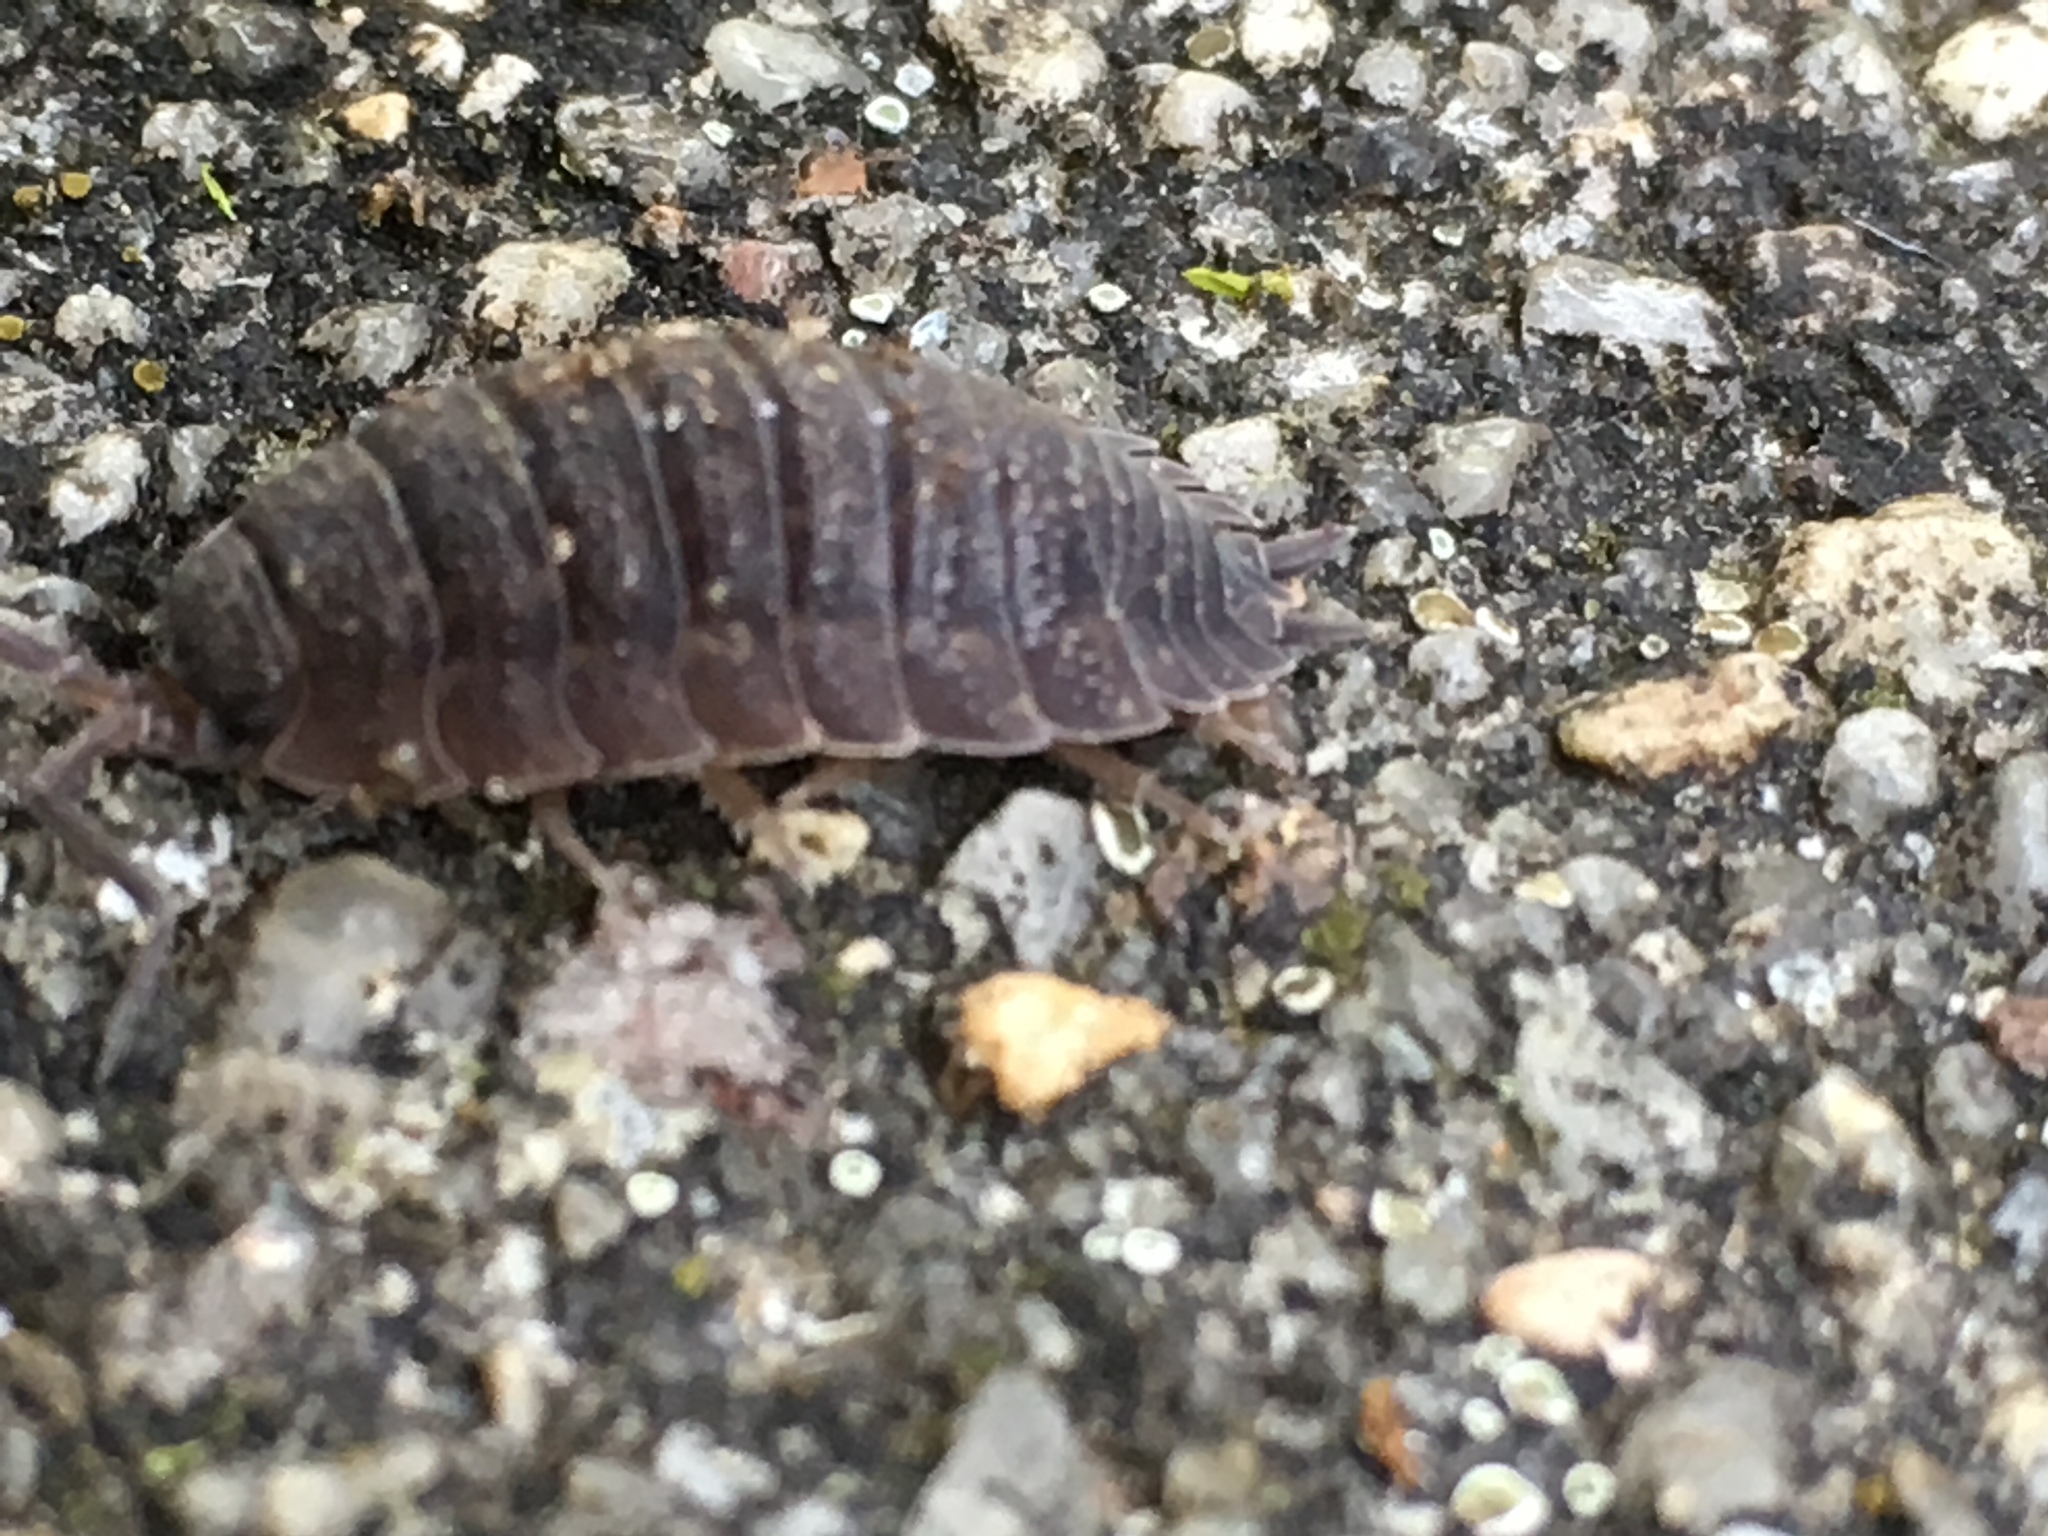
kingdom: Animalia
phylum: Arthropoda
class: Malacostraca
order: Isopoda
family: Porcellionidae
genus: Porcellio
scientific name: Porcellio scaber
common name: Common rough woodlouse
